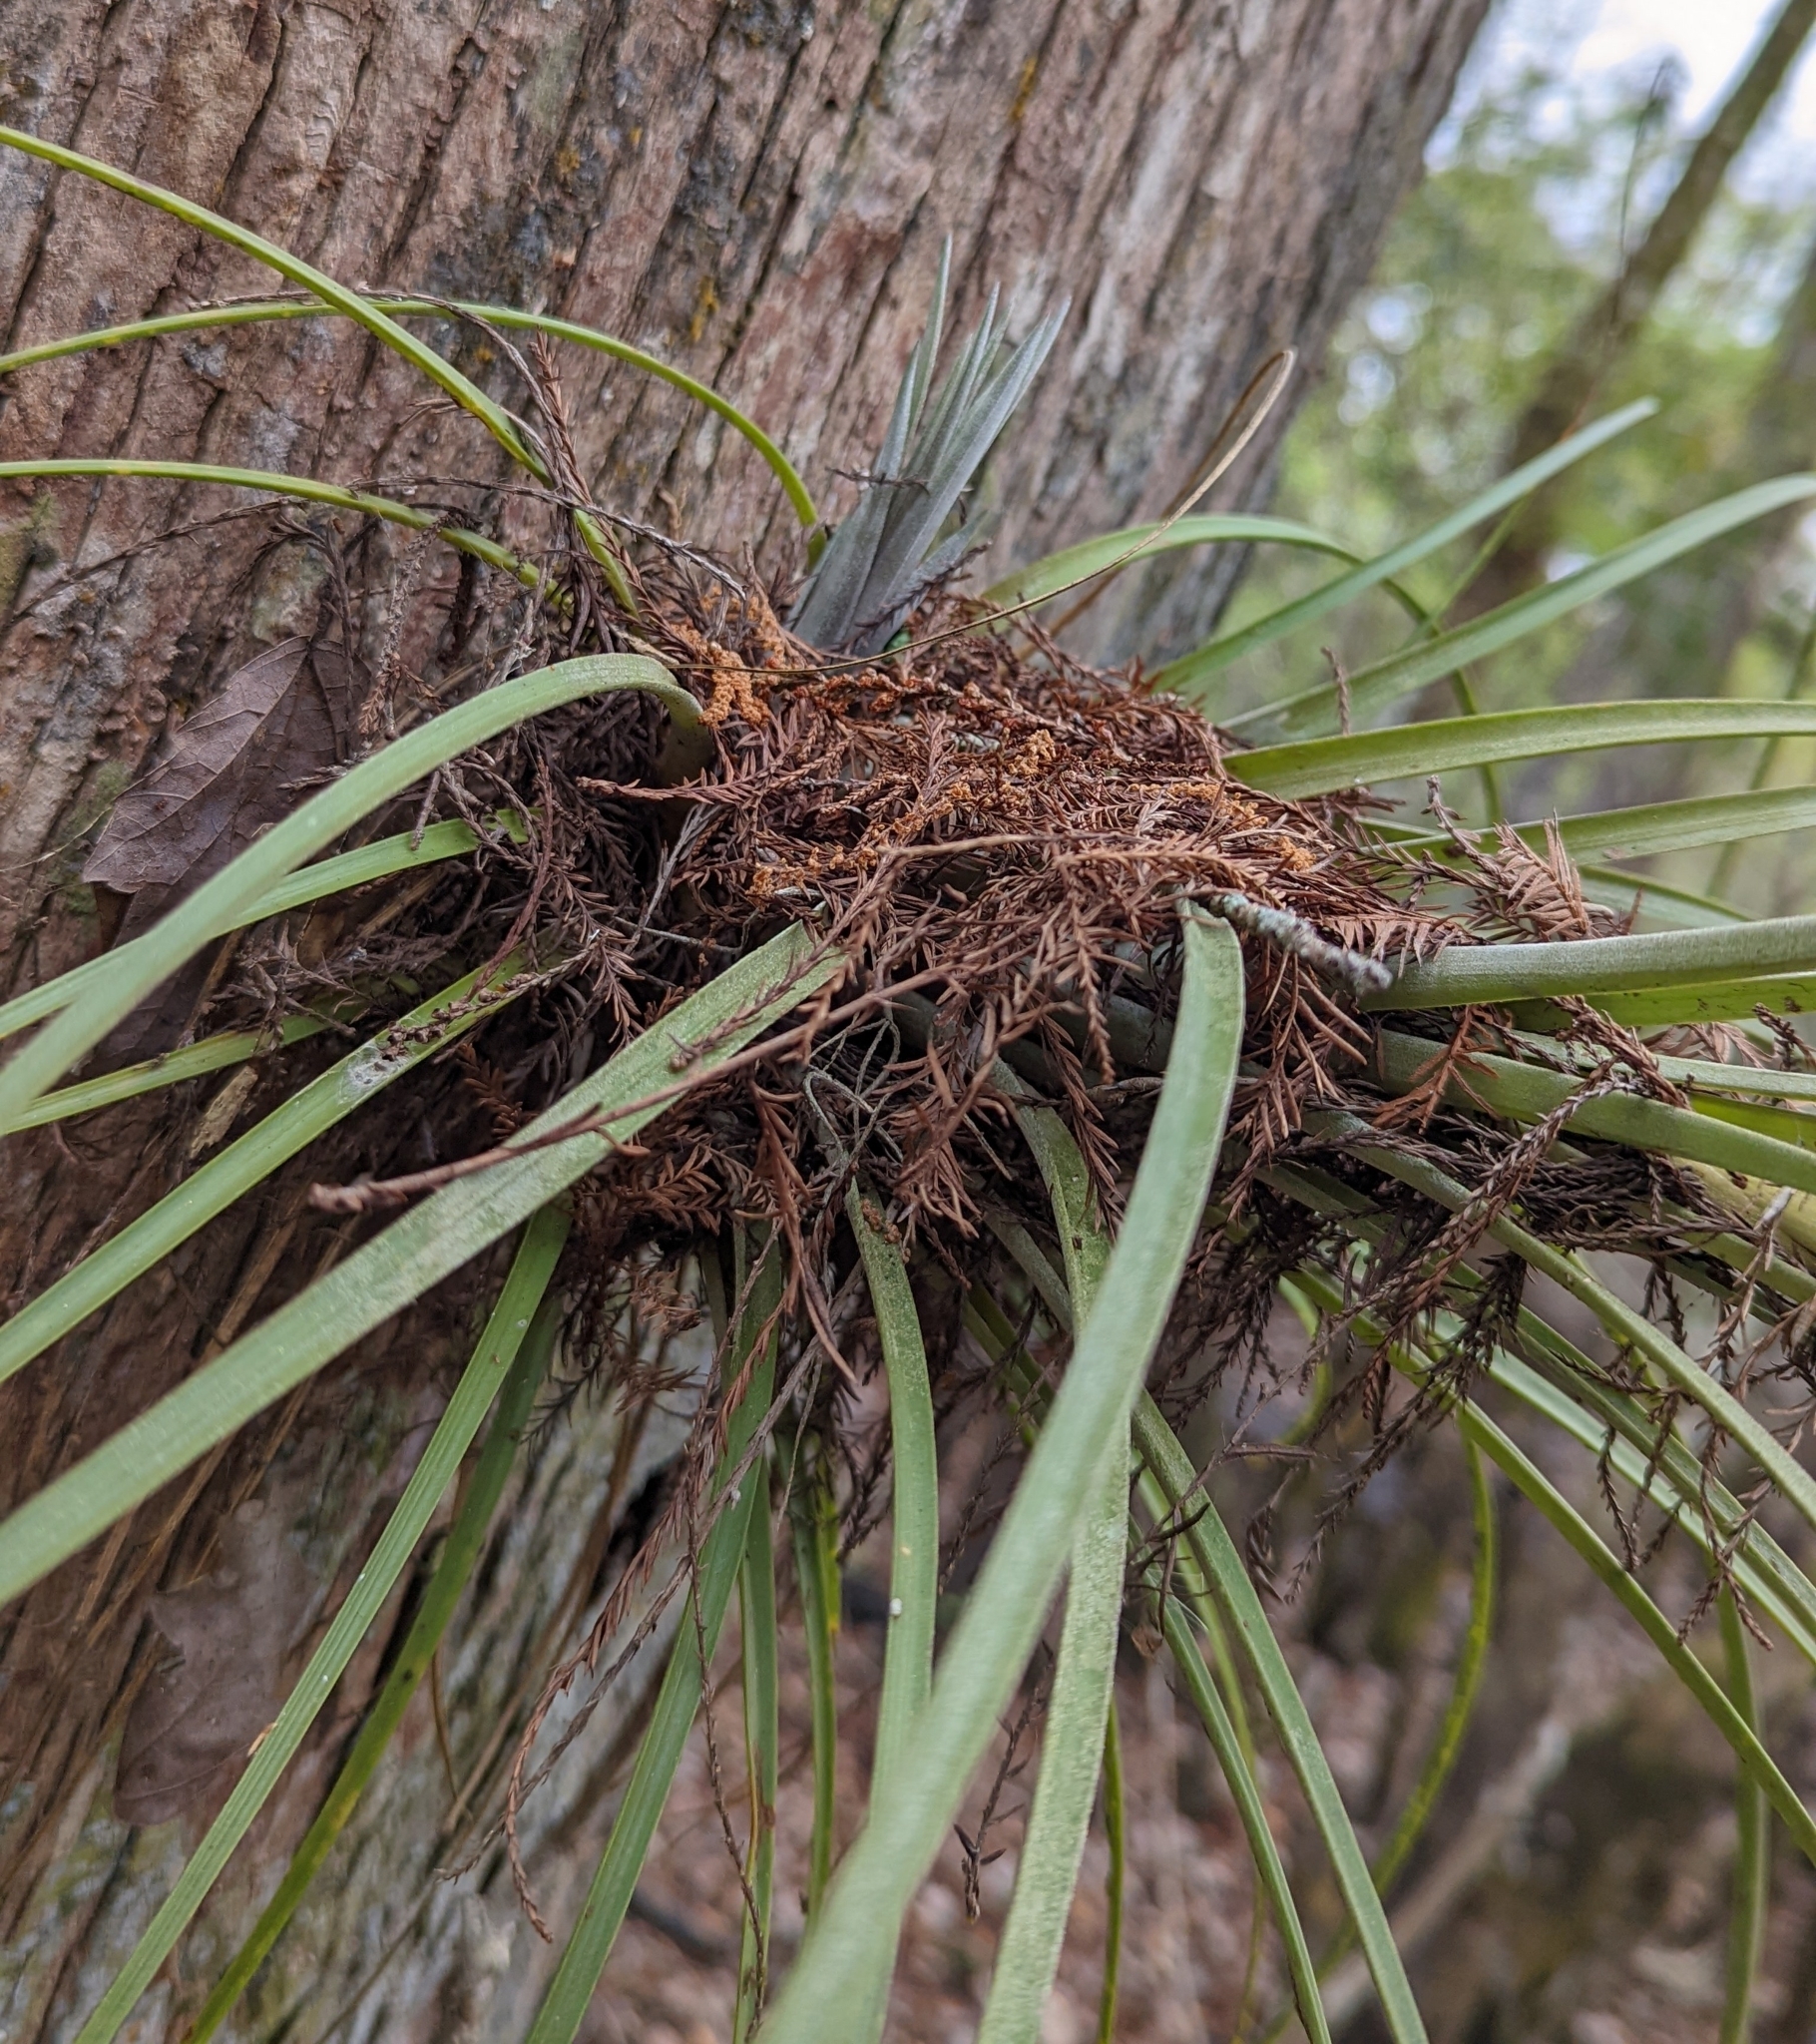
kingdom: Plantae
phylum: Tracheophyta
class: Liliopsida
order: Poales
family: Bromeliaceae
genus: Tillandsia
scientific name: Tillandsia simulata
